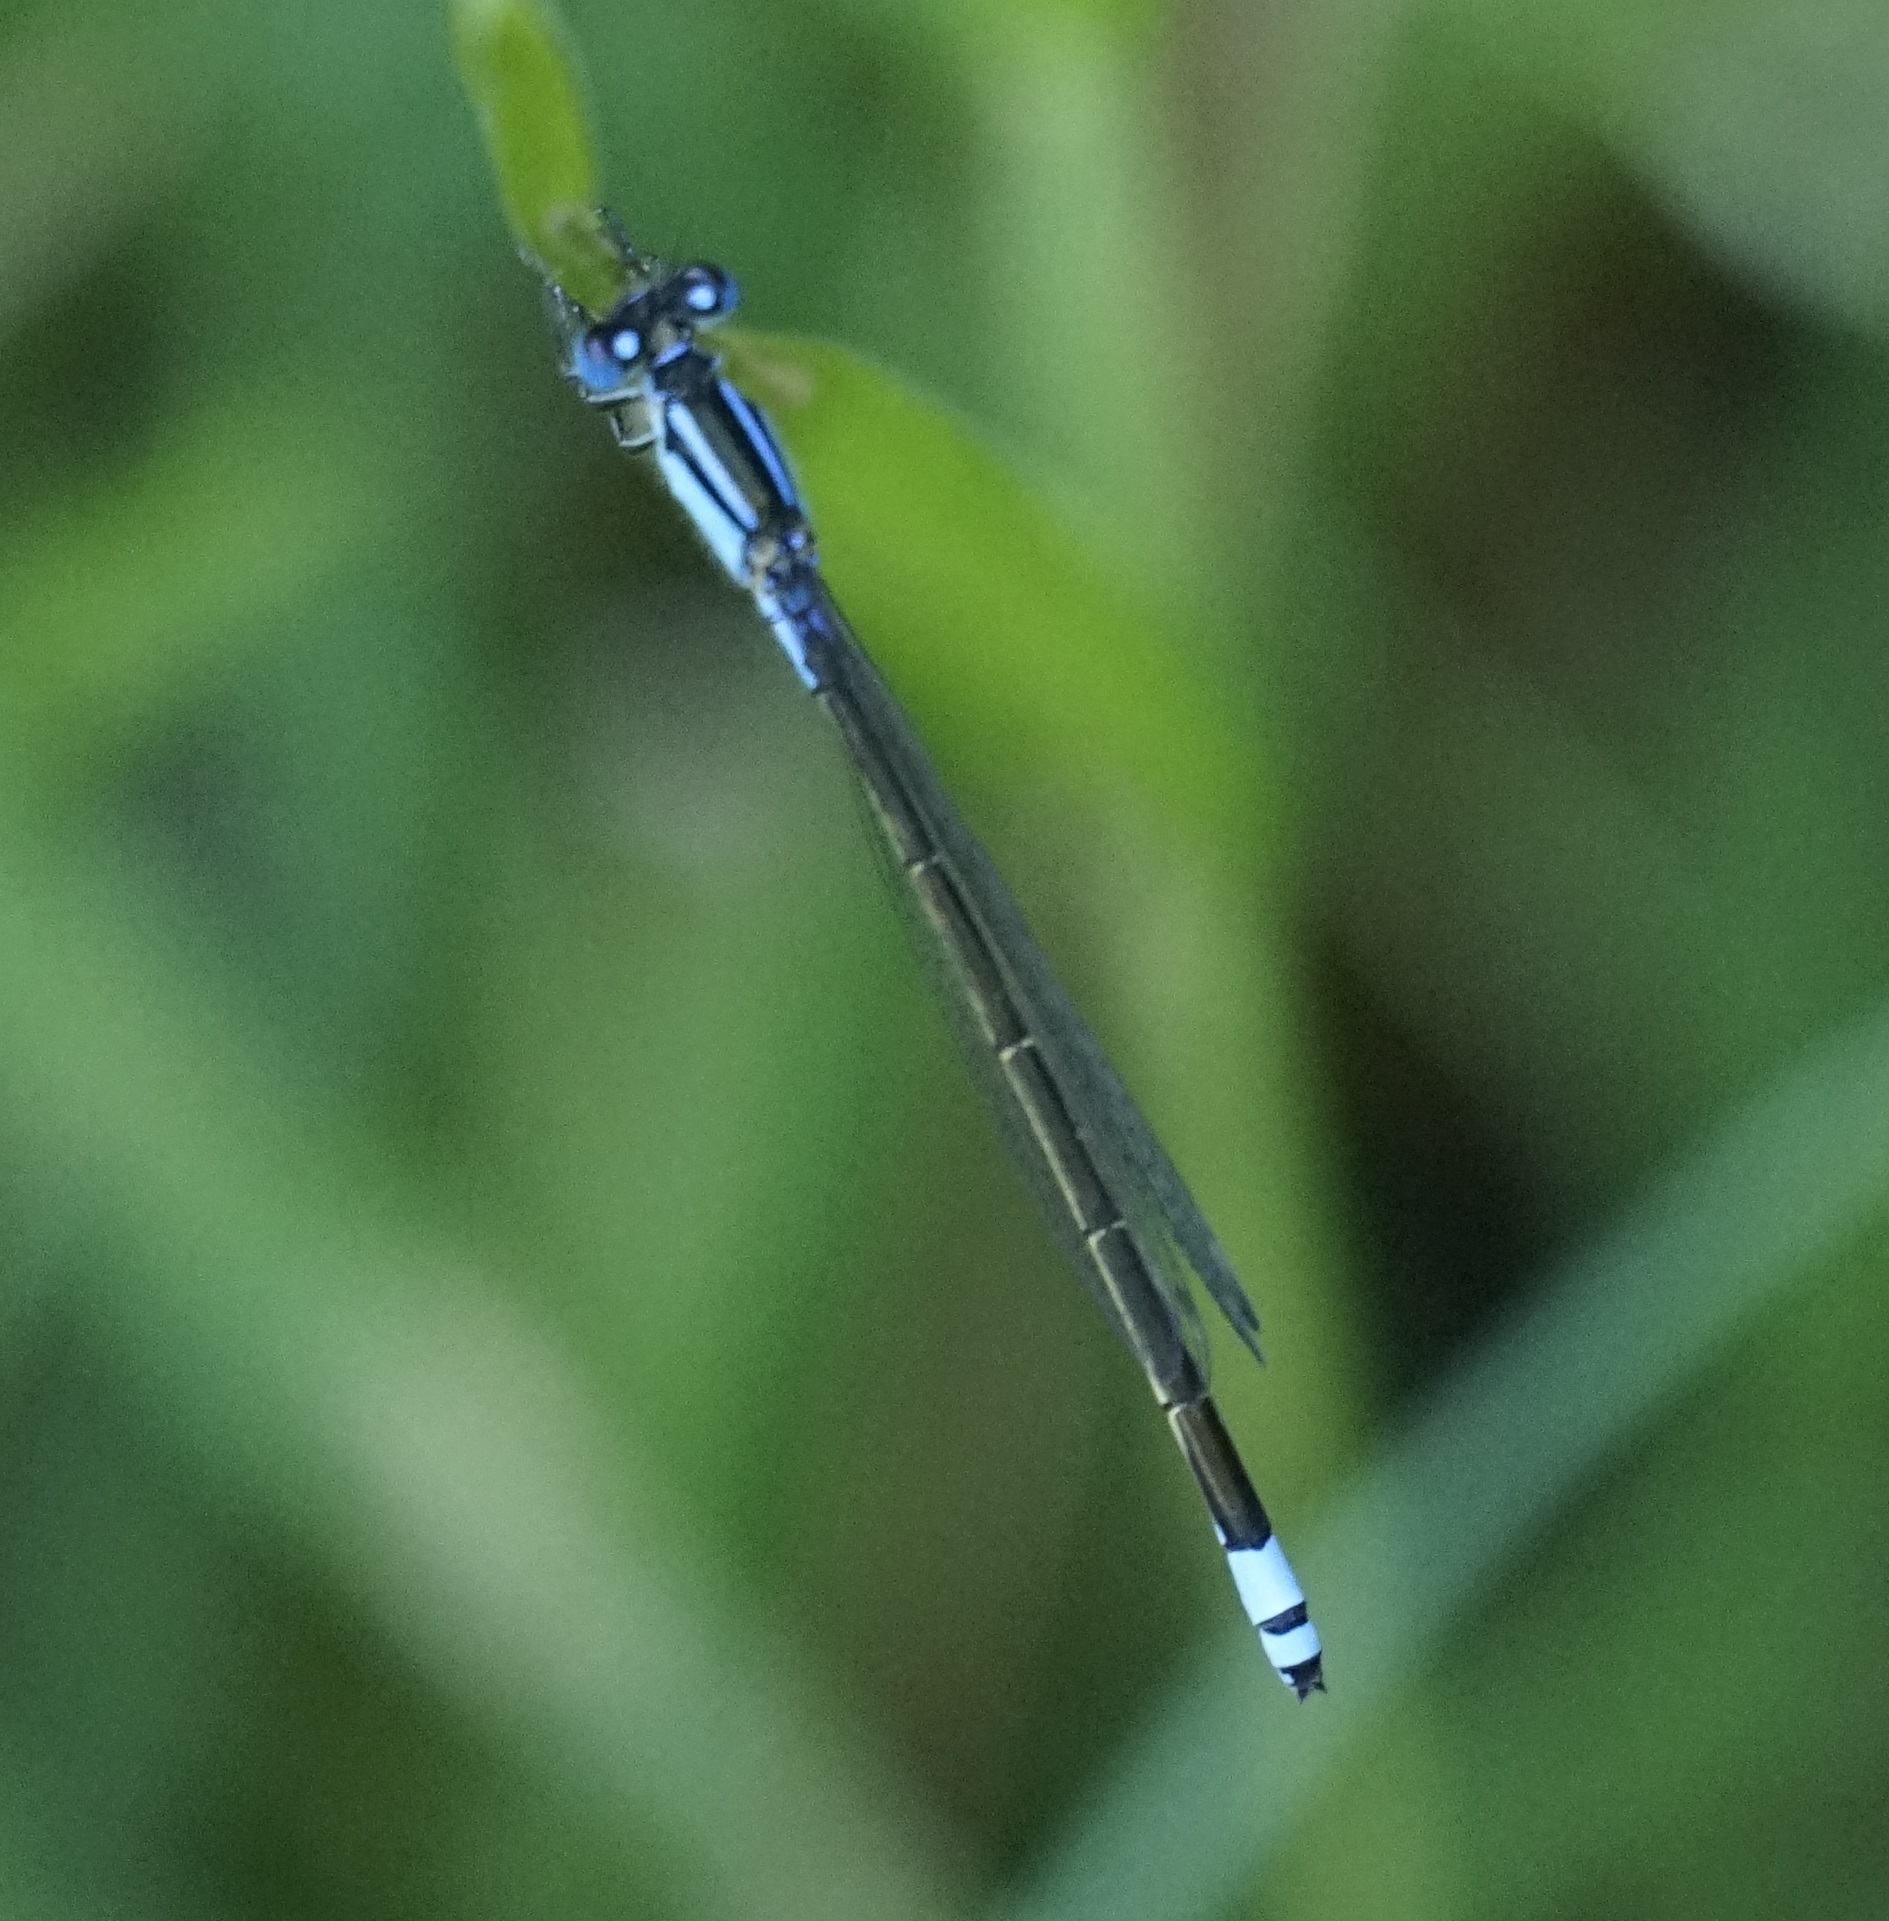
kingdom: Animalia
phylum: Arthropoda
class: Insecta
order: Odonata
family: Coenagrionidae
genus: Ischnura
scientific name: Ischnura heterosticta
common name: Common bluetail
